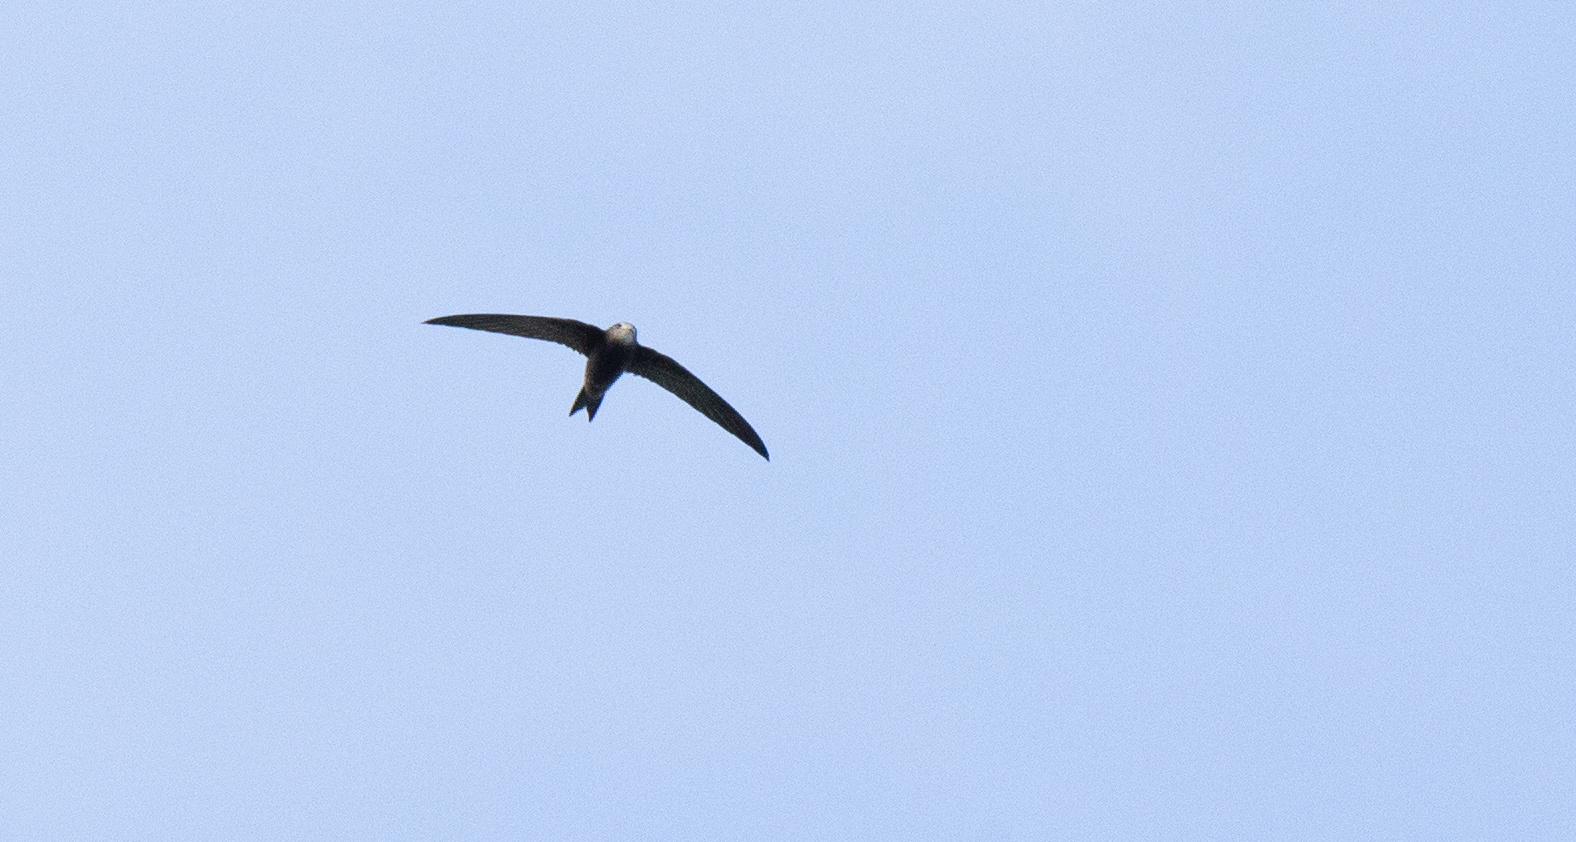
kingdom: Animalia
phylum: Chordata
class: Aves
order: Apodiformes
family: Apodidae
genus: Apus
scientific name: Apus apus
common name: Common swift
